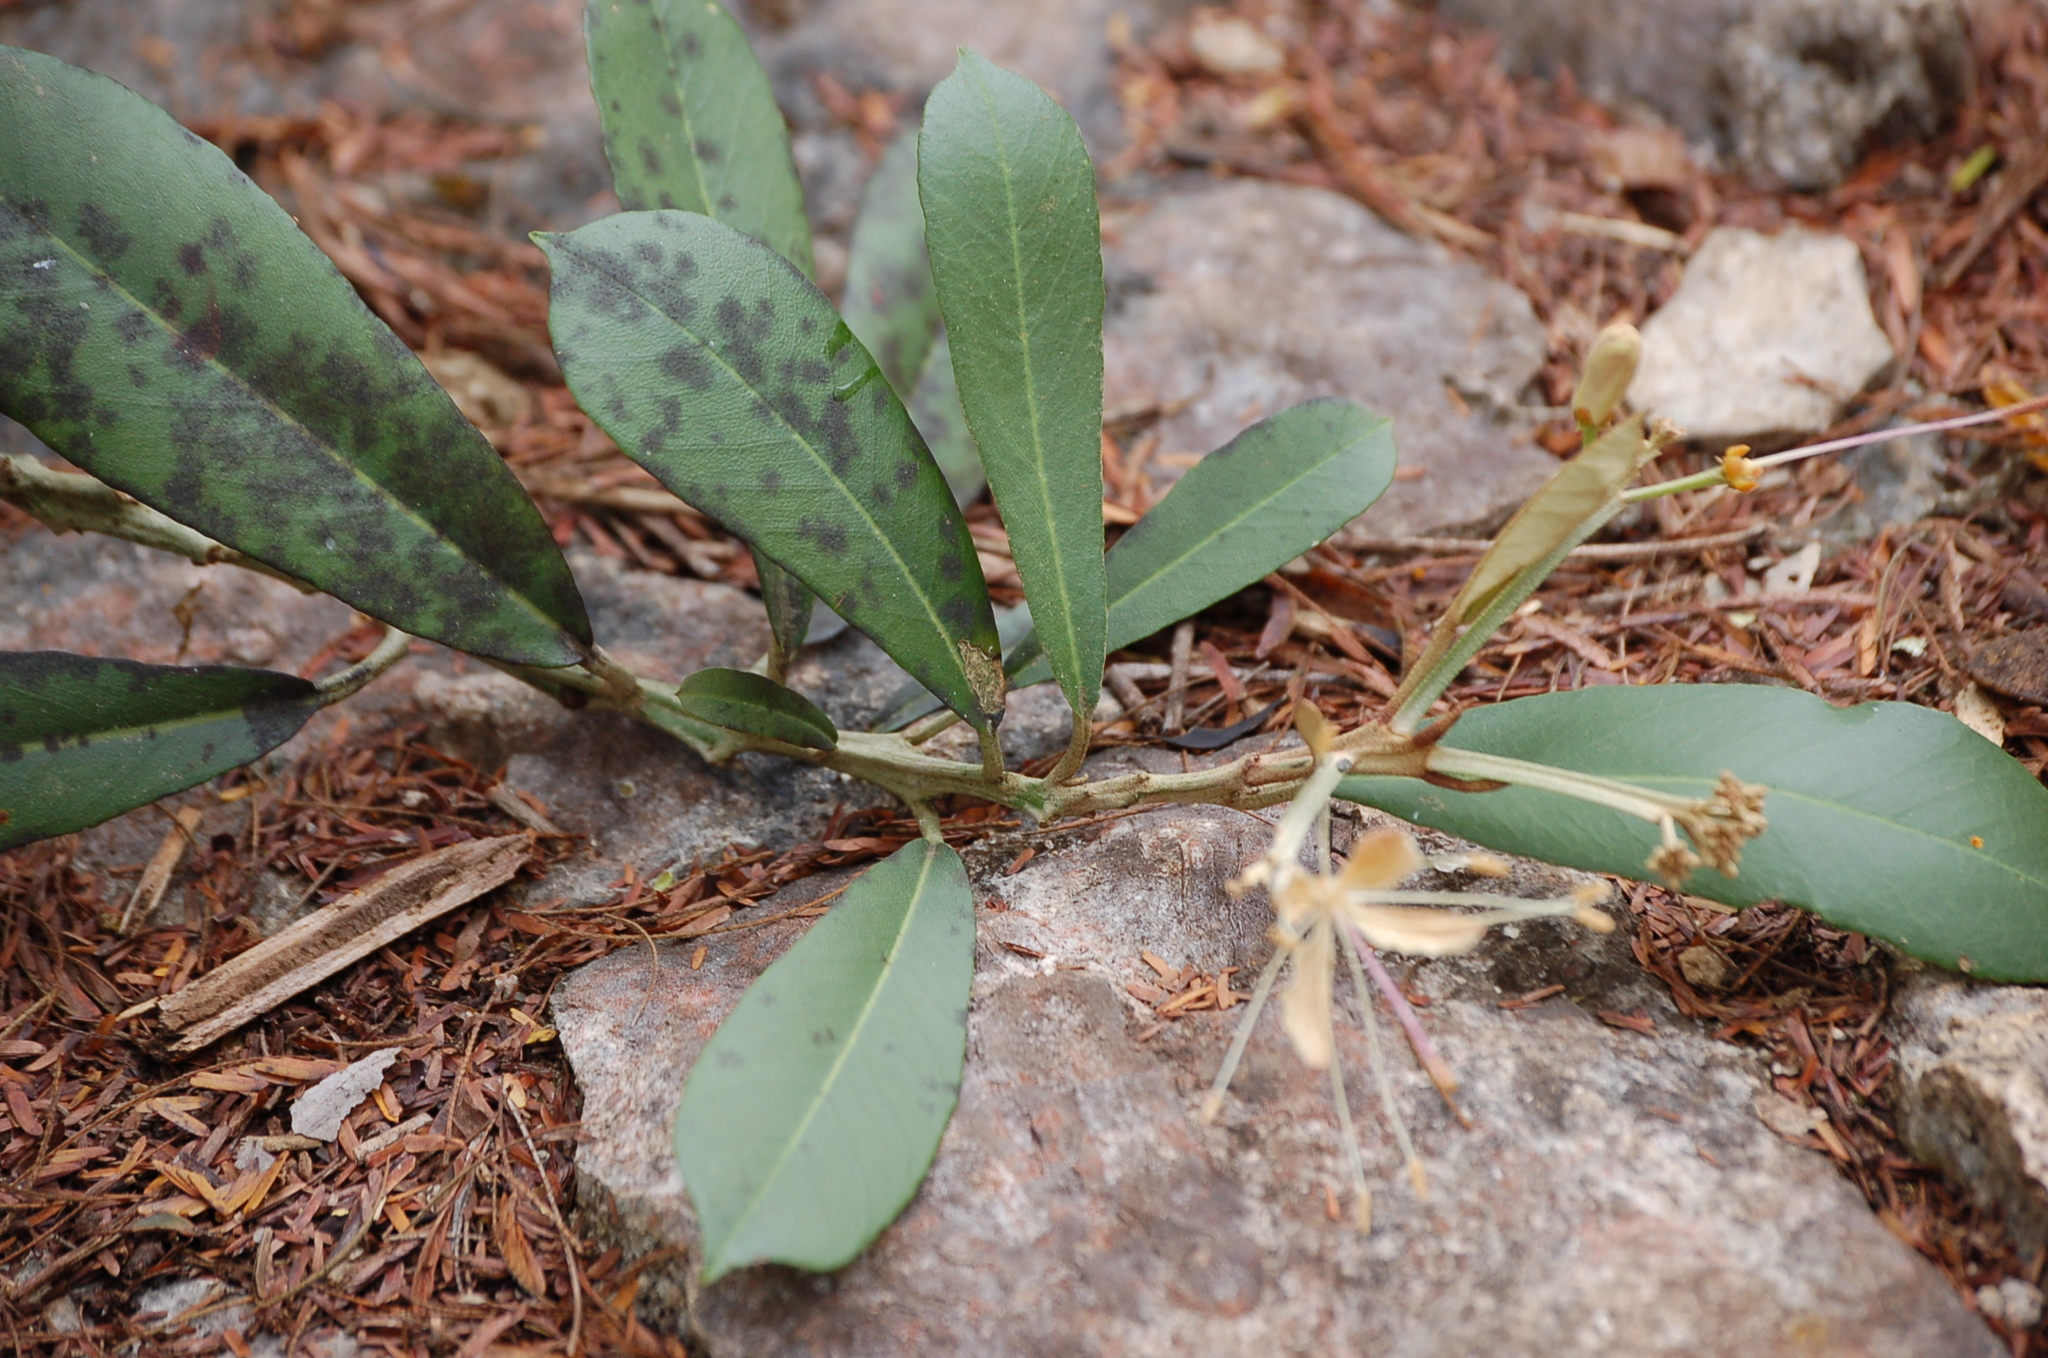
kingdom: Plantae
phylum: Tracheophyta
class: Magnoliopsida
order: Brassicales
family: Capparaceae
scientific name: Capparaceae
